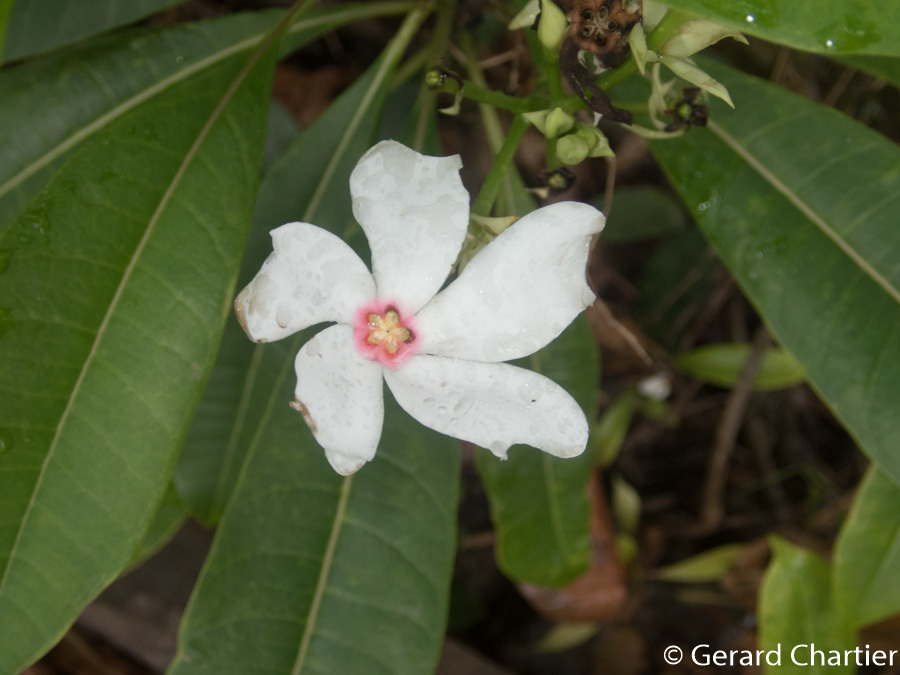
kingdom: Plantae
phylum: Tracheophyta
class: Magnoliopsida
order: Gentianales
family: Apocynaceae
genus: Cerbera
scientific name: Cerbera manghas
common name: Reva
